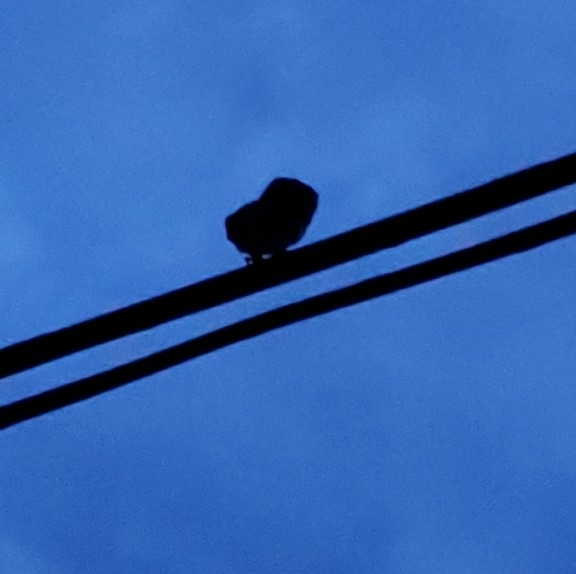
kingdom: Animalia
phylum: Chordata
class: Aves
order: Strigiformes
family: Strigidae
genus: Megascops
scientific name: Megascops asio
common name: Eastern screech-owl
